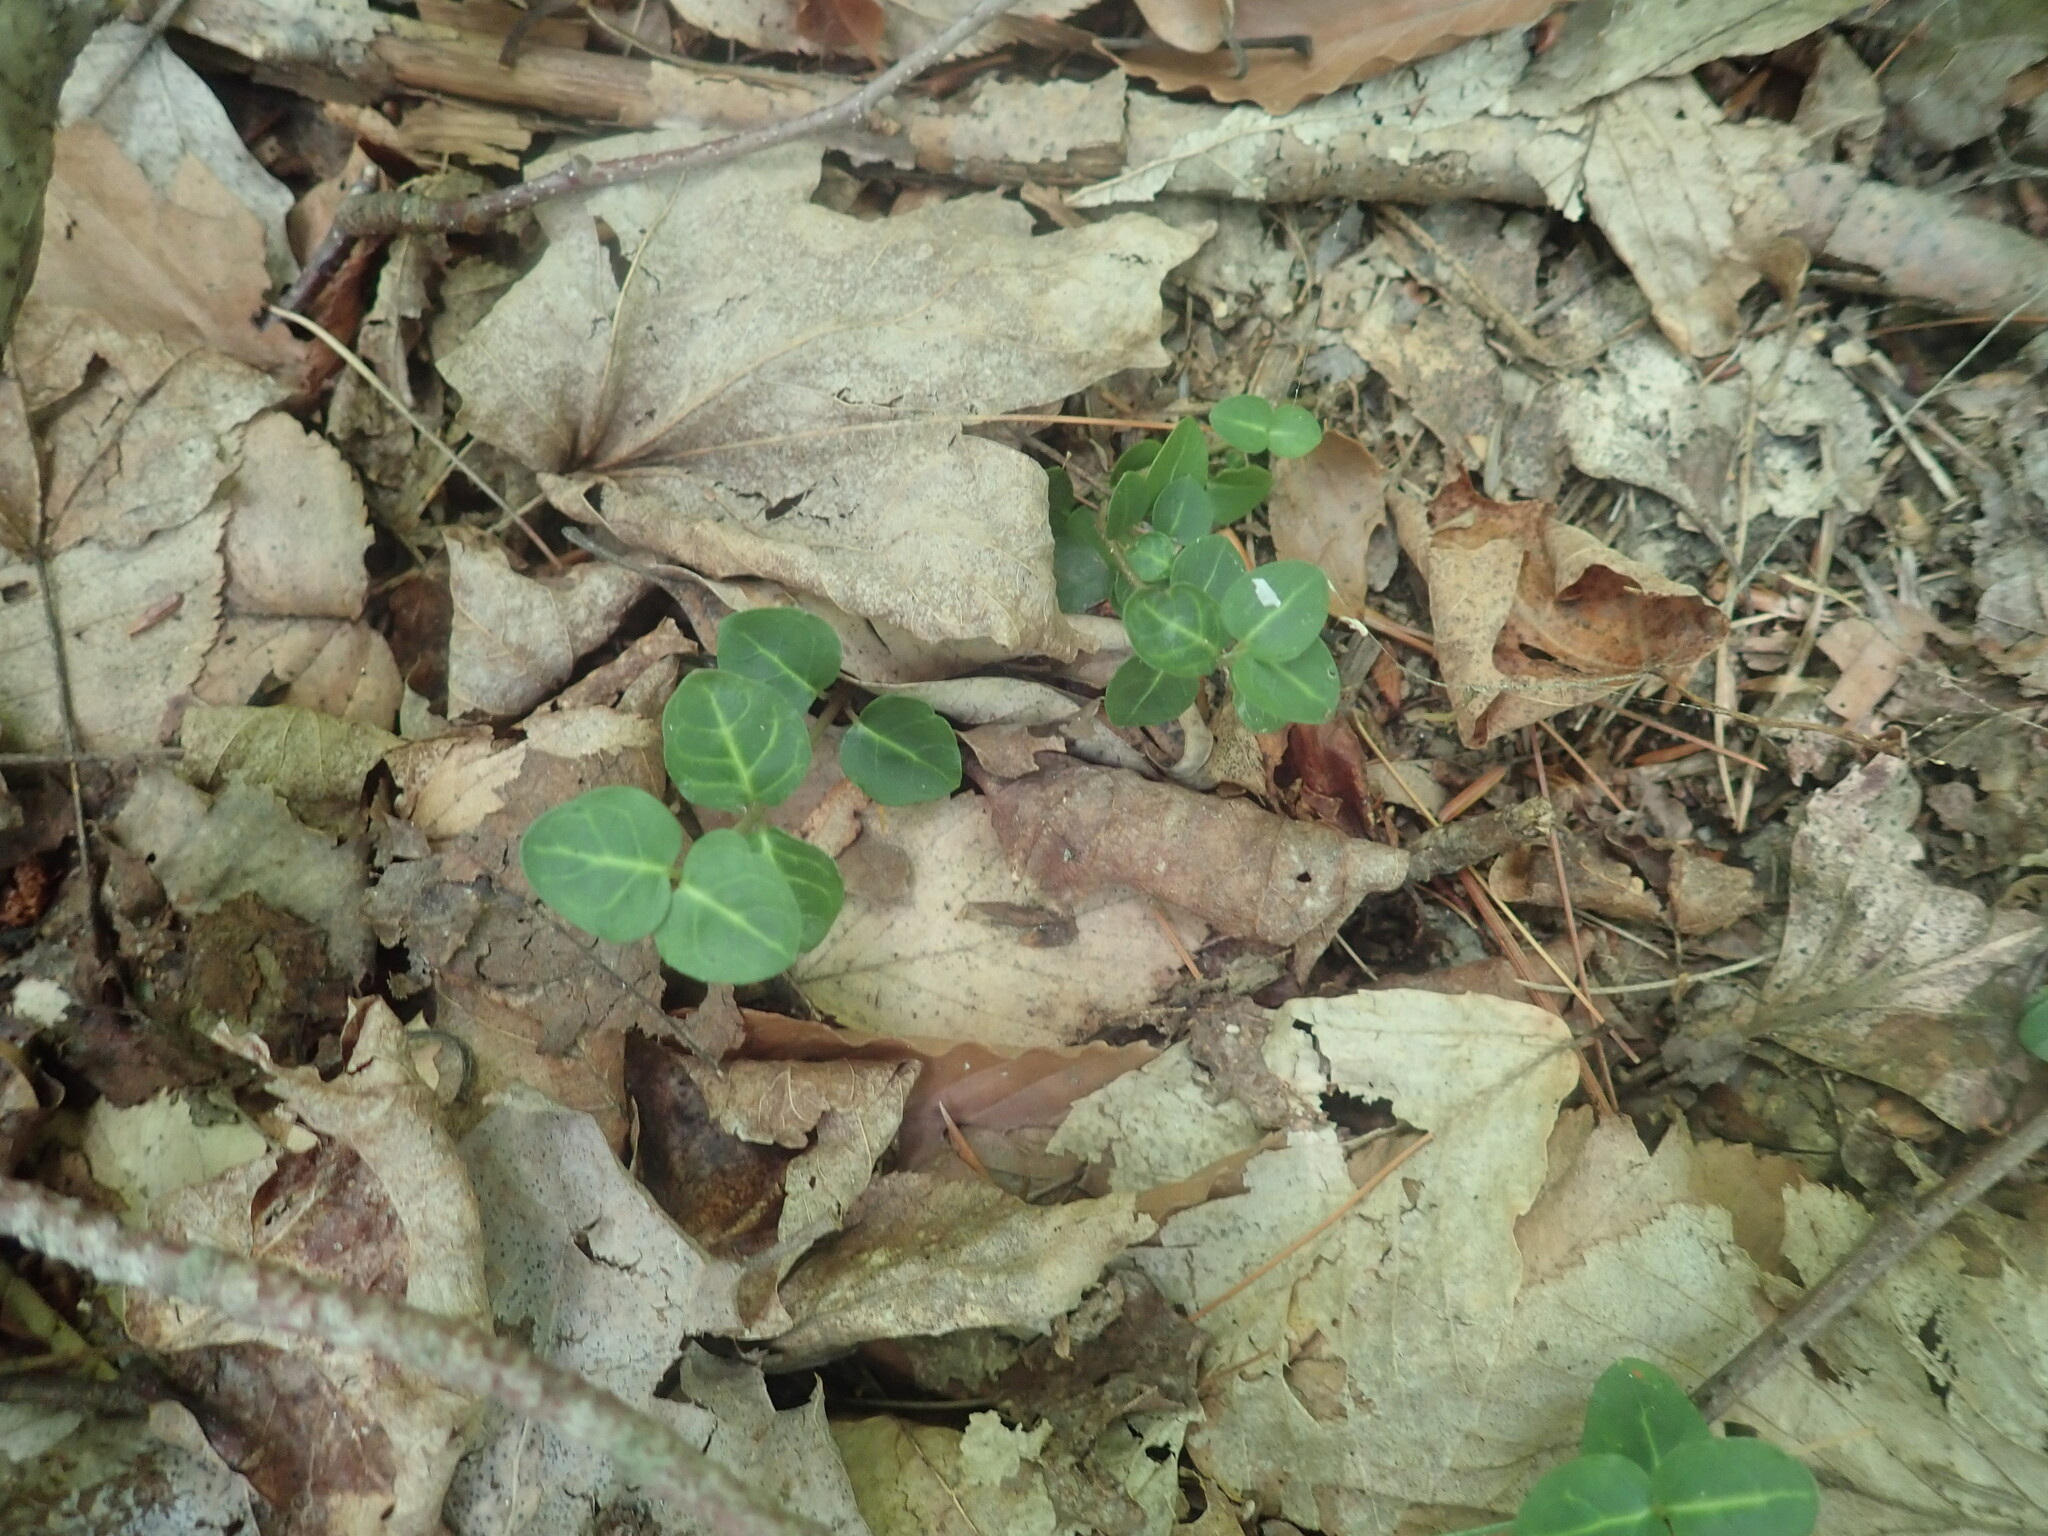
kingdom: Plantae
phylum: Tracheophyta
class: Magnoliopsida
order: Gentianales
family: Rubiaceae
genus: Mitchella
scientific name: Mitchella repens
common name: Partridge-berry
